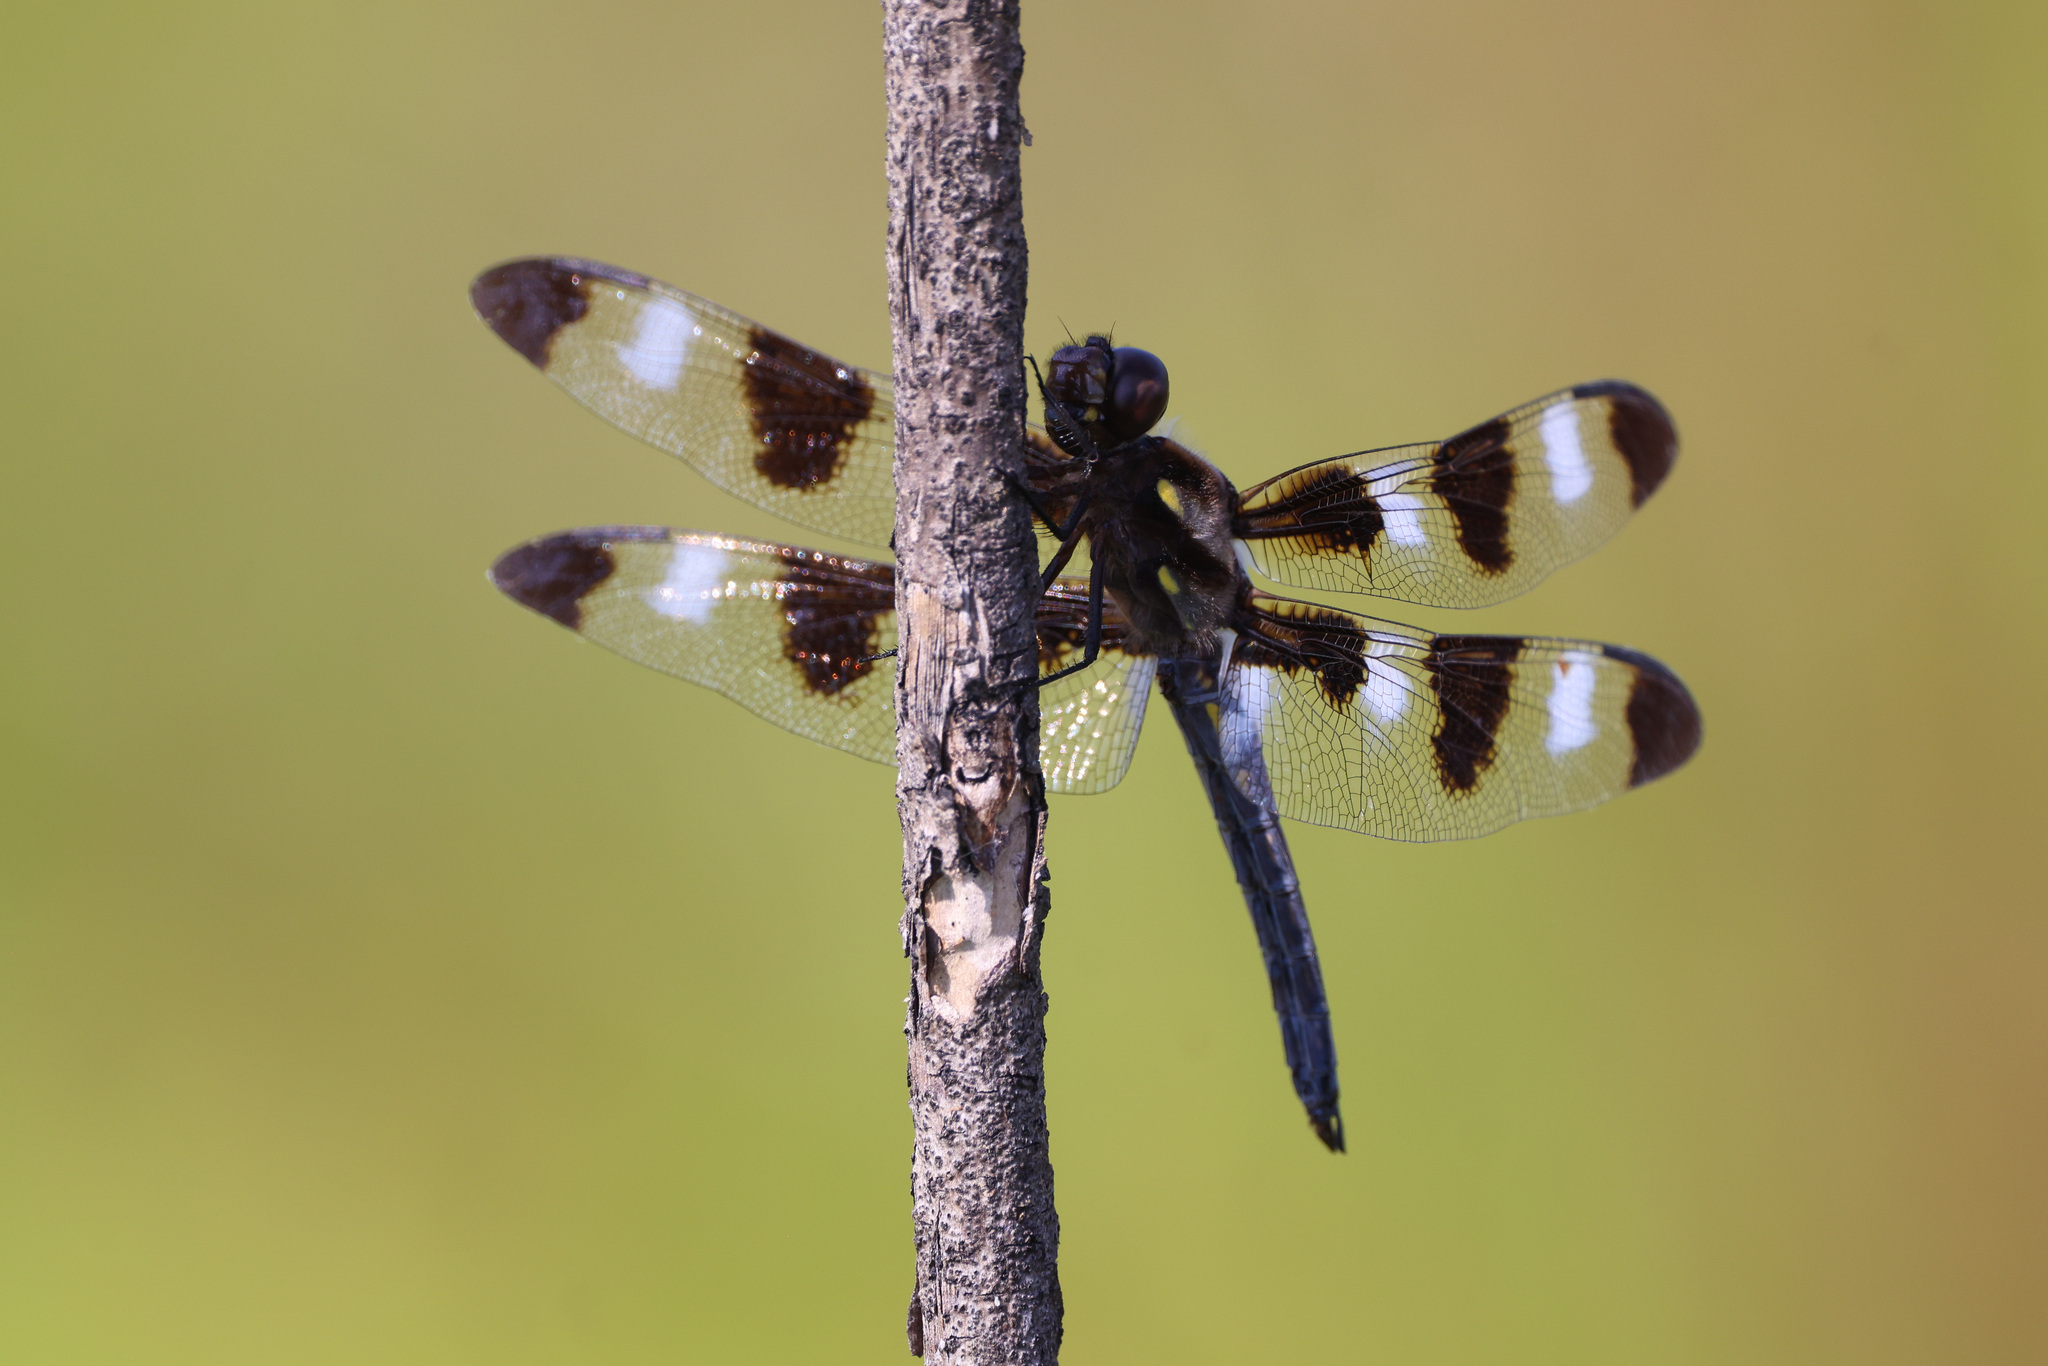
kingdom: Animalia
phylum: Arthropoda
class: Insecta
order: Odonata
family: Libellulidae
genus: Libellula
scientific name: Libellula pulchella
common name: Twelve-spotted skimmer
